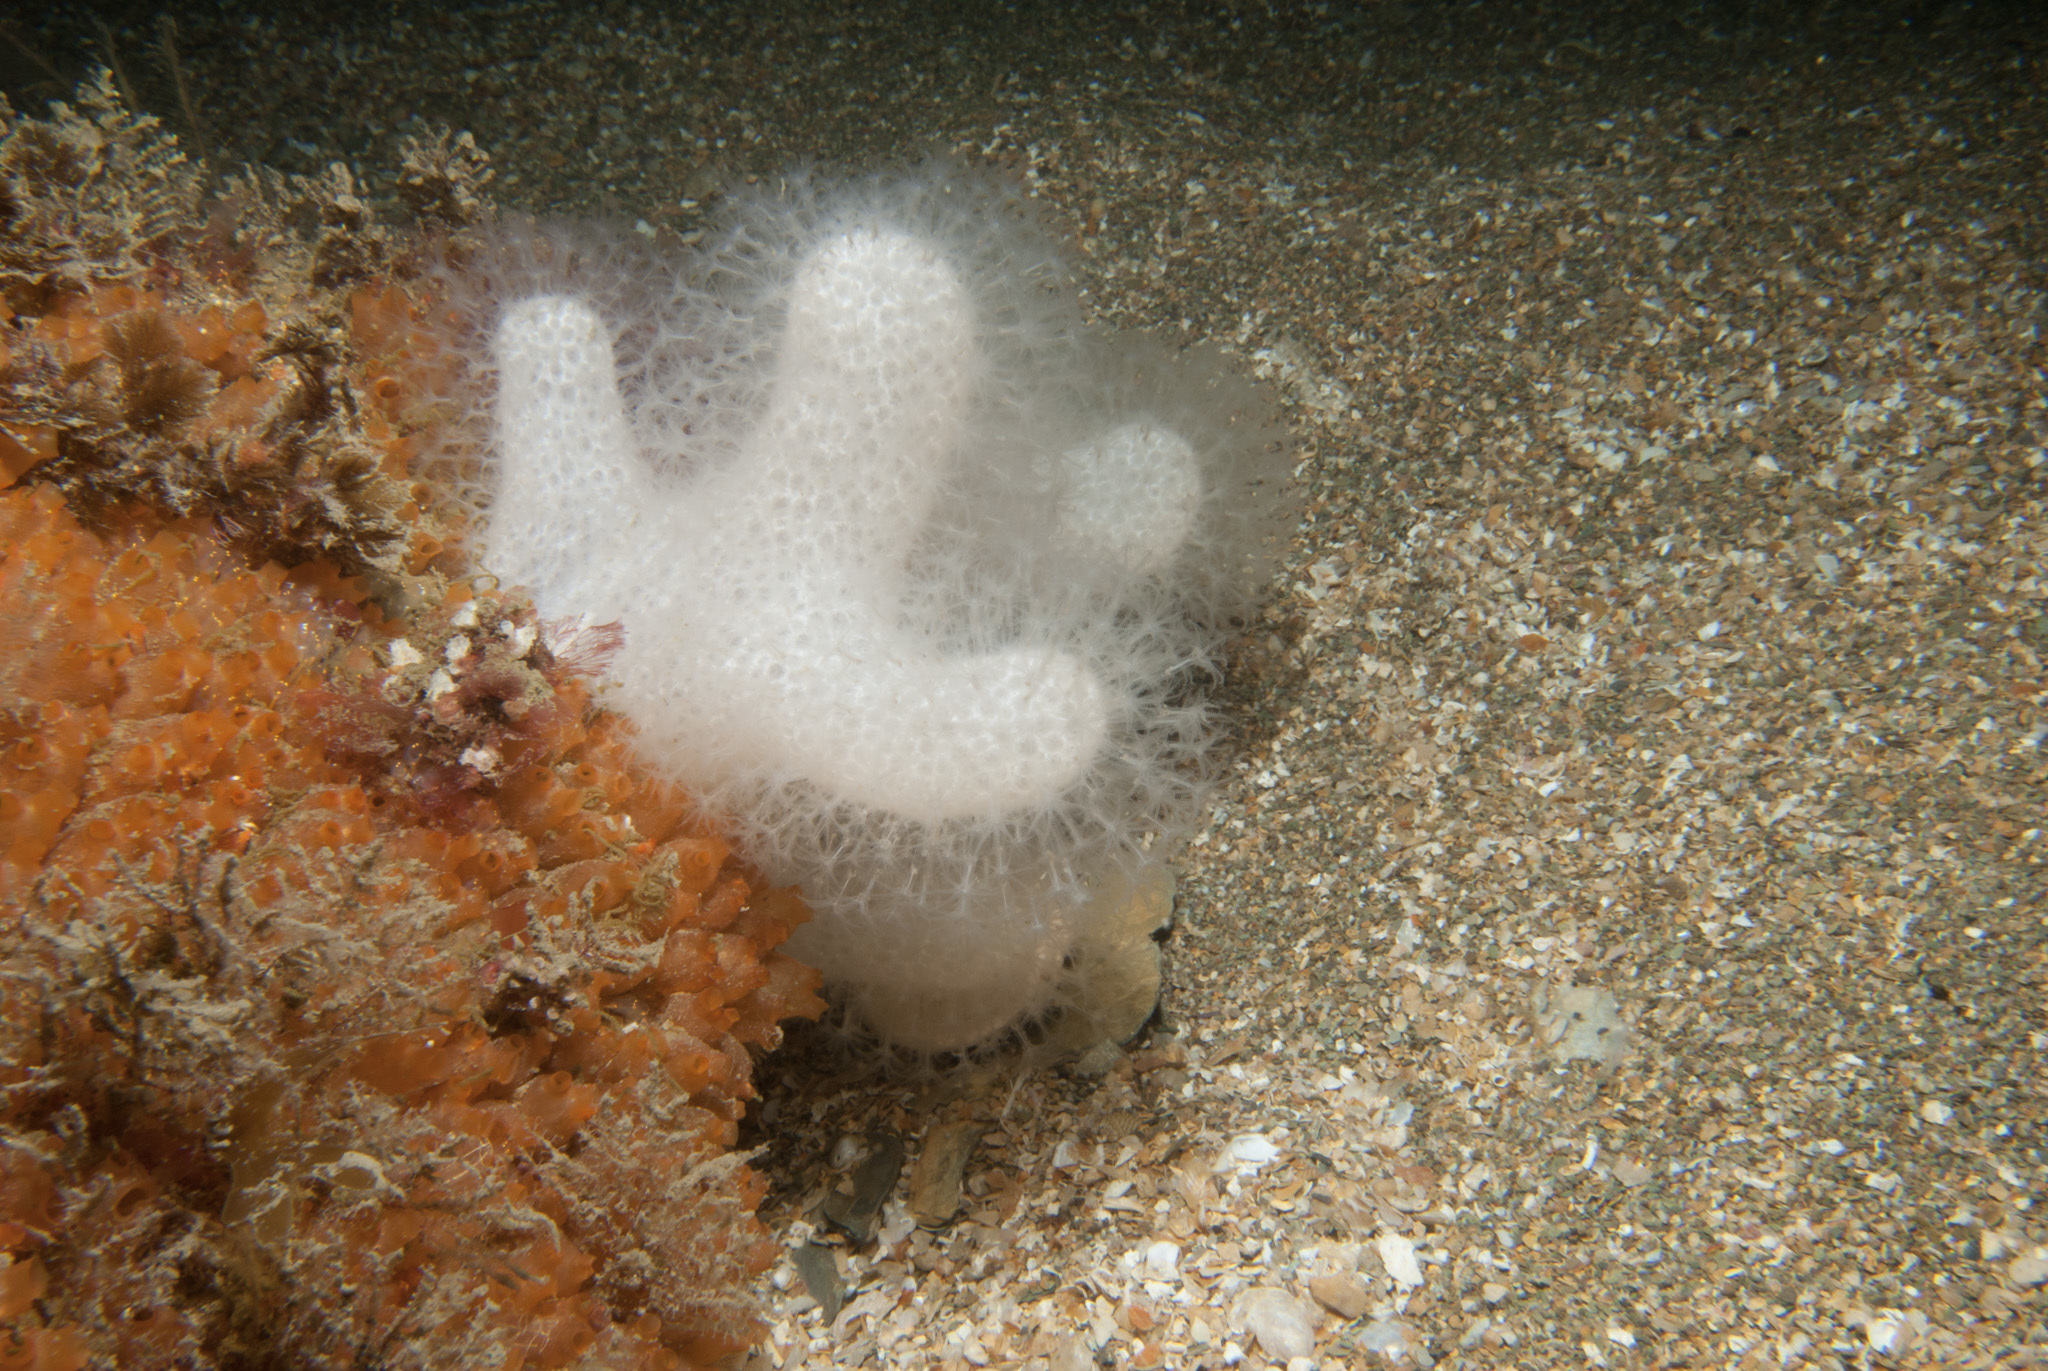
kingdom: Animalia
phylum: Cnidaria
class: Anthozoa
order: Malacalcyonacea
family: Alcyoniidae
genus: Alcyonium
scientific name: Alcyonium digitatum
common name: Dead man's fingers
